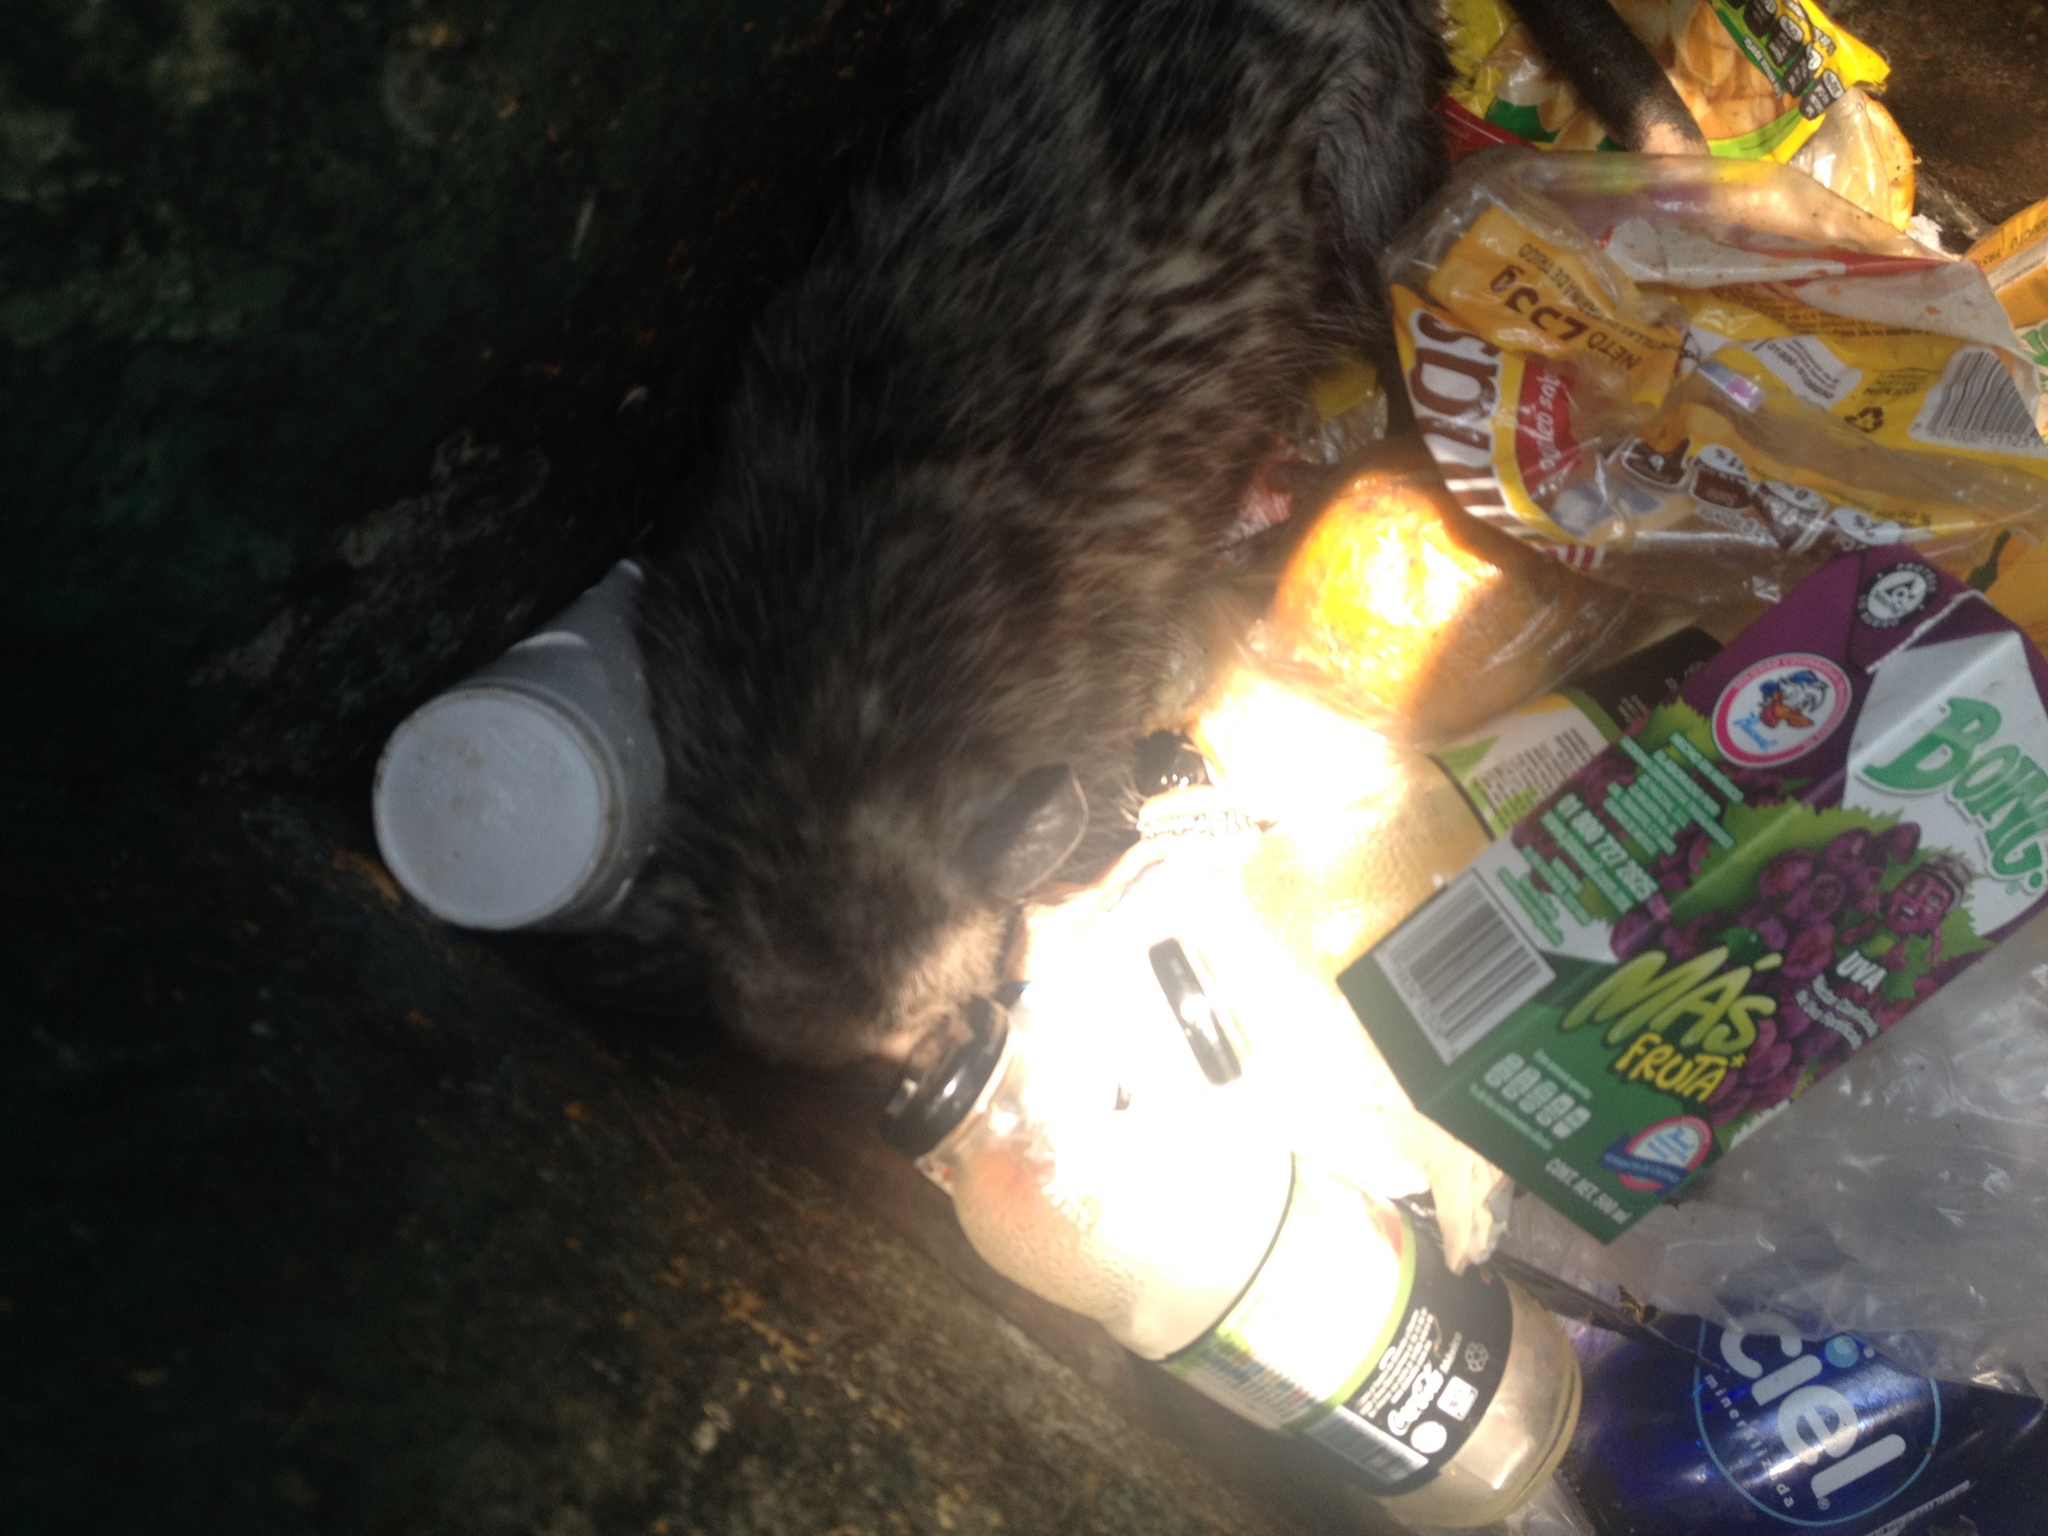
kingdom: Animalia
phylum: Chordata
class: Mammalia
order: Didelphimorphia
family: Didelphidae
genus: Didelphis
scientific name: Didelphis virginiana
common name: Virginia opossum
